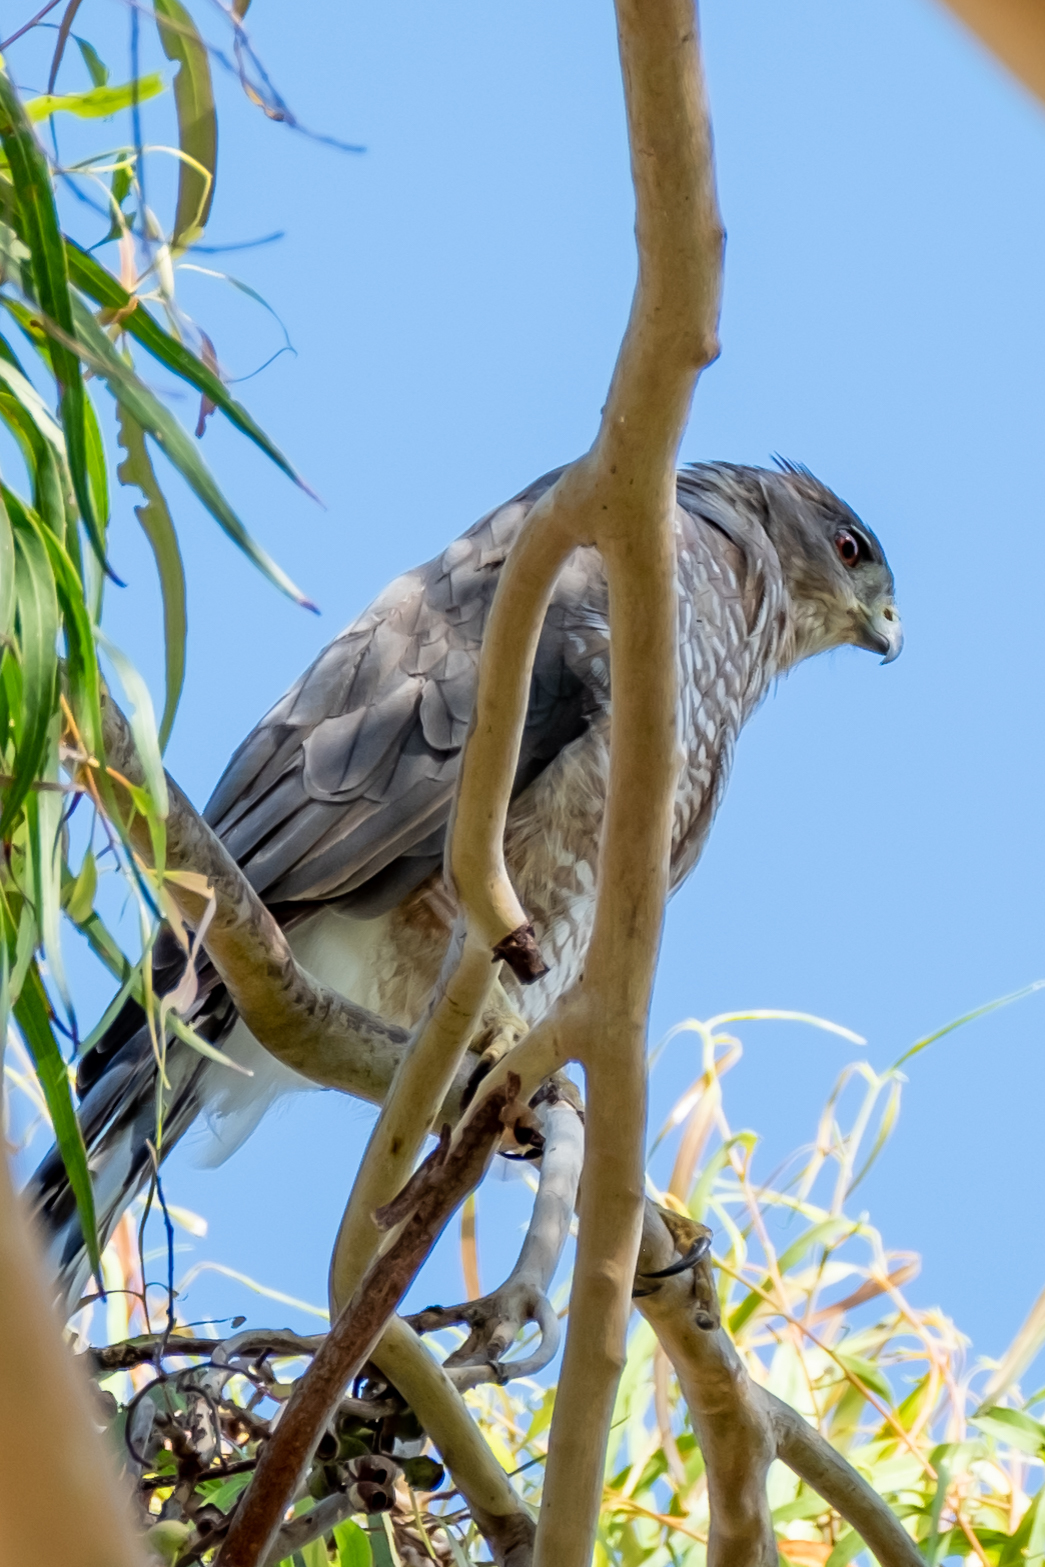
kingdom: Animalia
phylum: Chordata
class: Aves
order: Accipitriformes
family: Accipitridae
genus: Accipiter
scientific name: Accipiter cooperii
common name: Cooper's hawk
